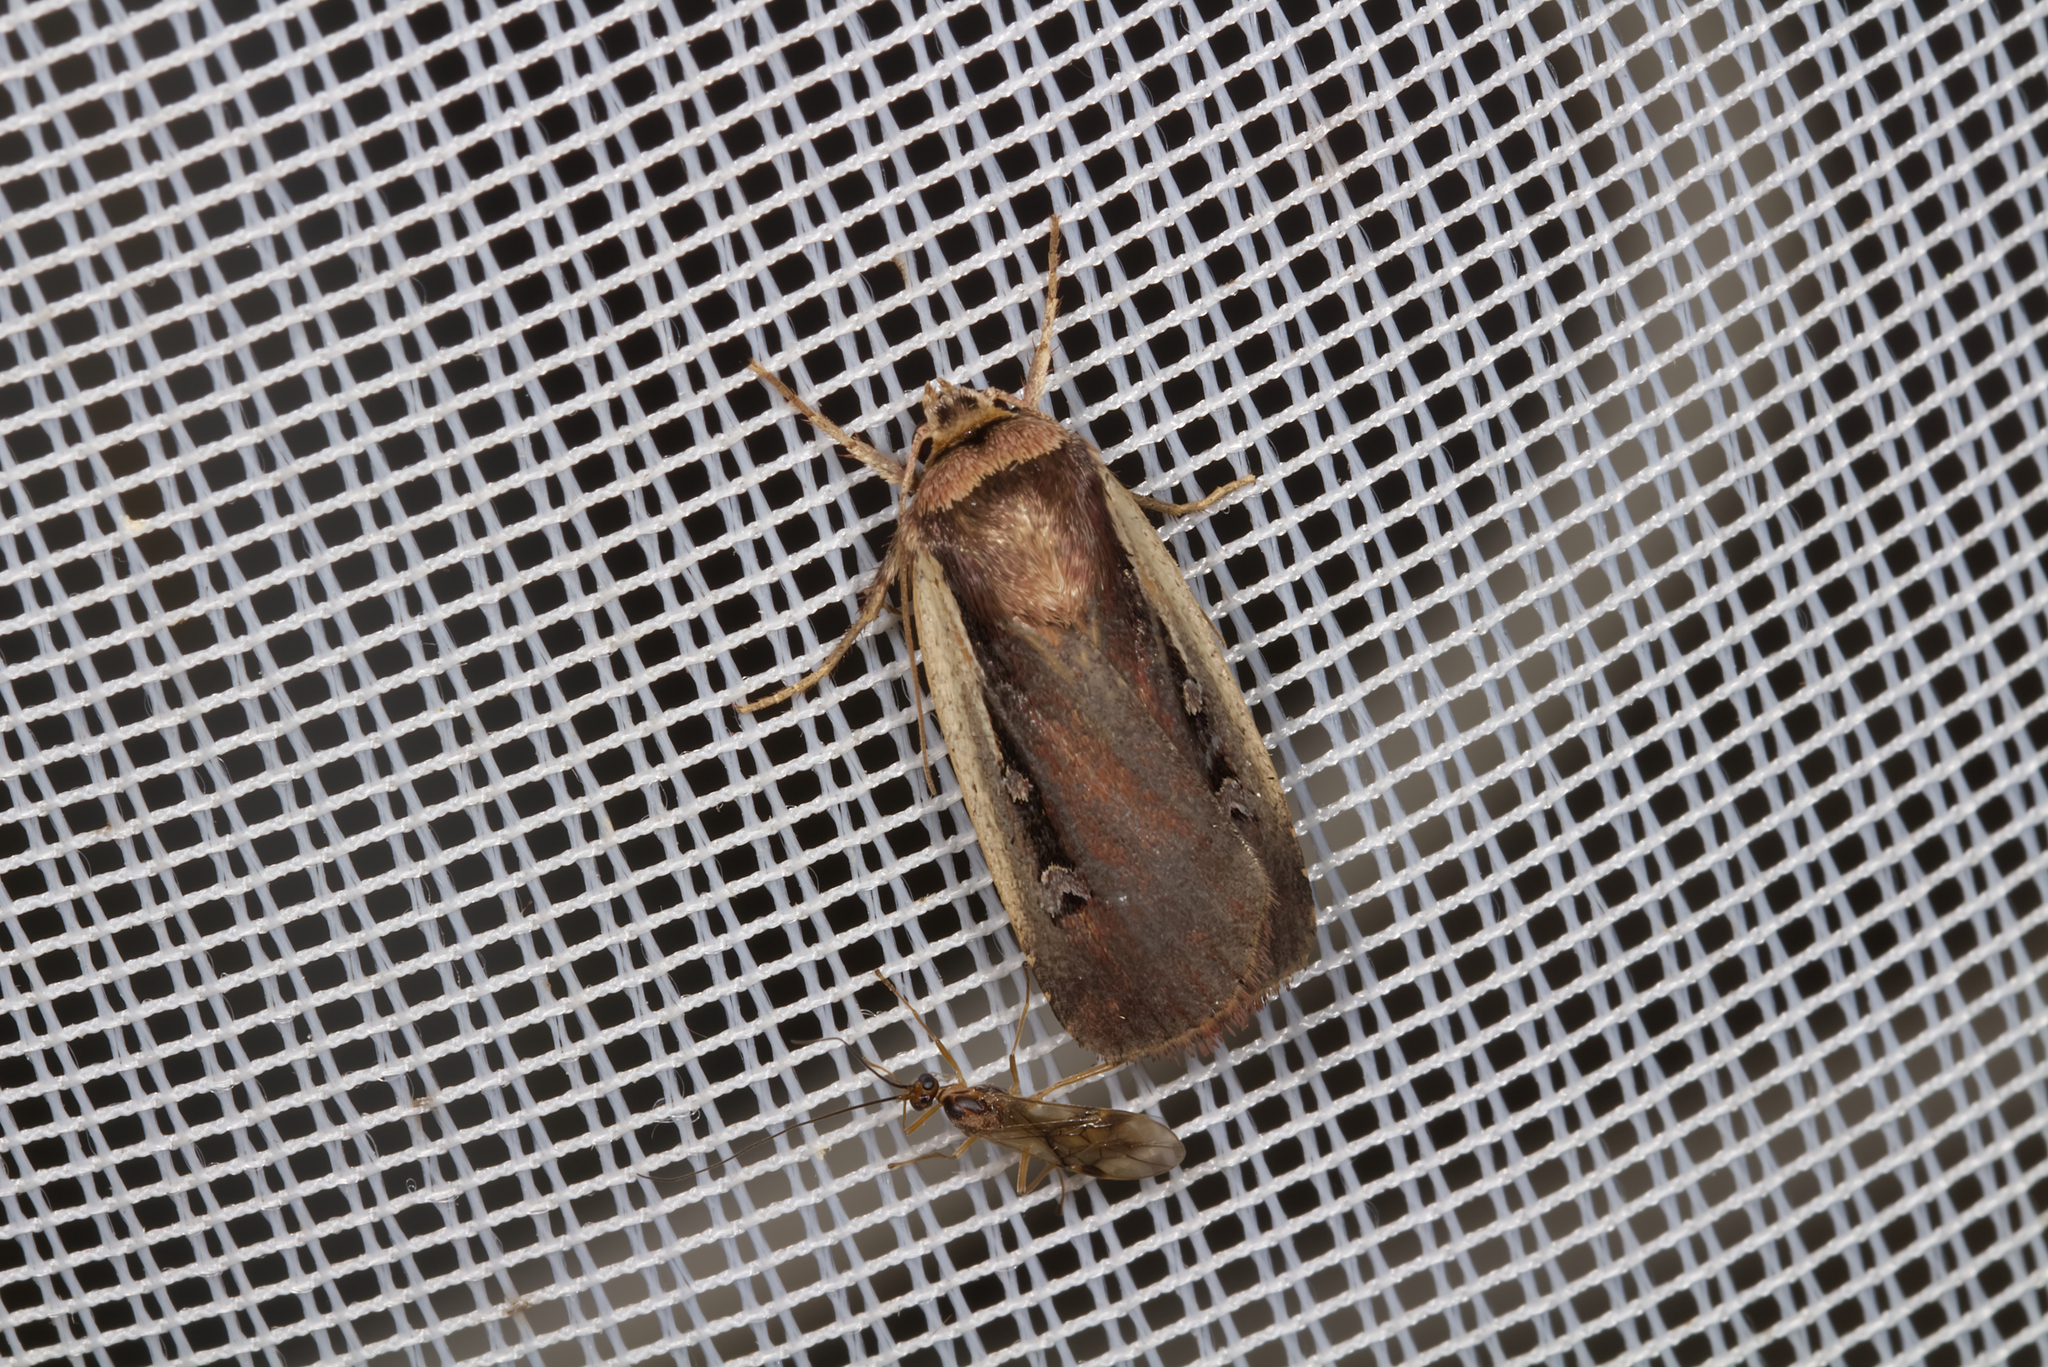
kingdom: Animalia
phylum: Arthropoda
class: Insecta
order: Lepidoptera
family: Noctuidae
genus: Ochropleura
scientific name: Ochropleura plecta
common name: Flame shoulder
